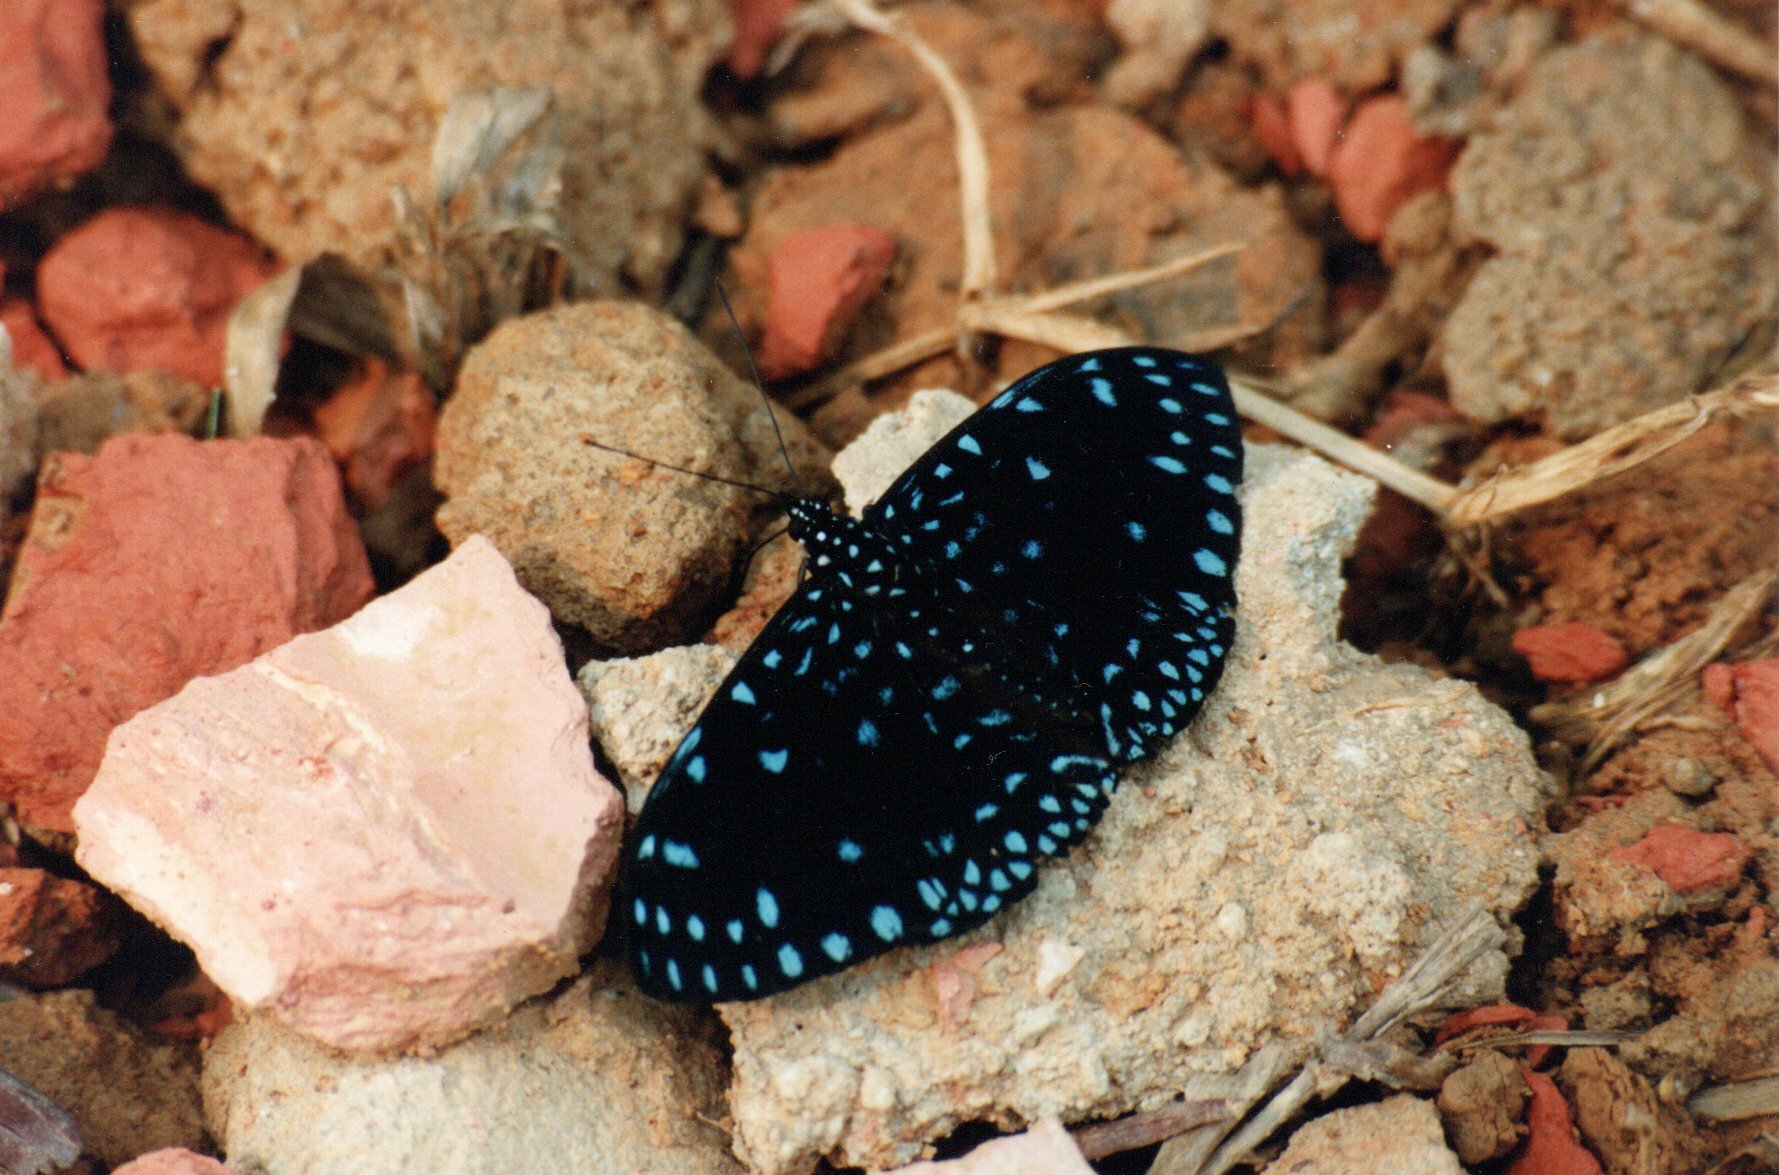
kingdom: Animalia
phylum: Arthropoda
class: Insecta
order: Lepidoptera
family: Nymphalidae
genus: Hamadryas
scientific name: Hamadryas laodamia
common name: Starry night cracker
